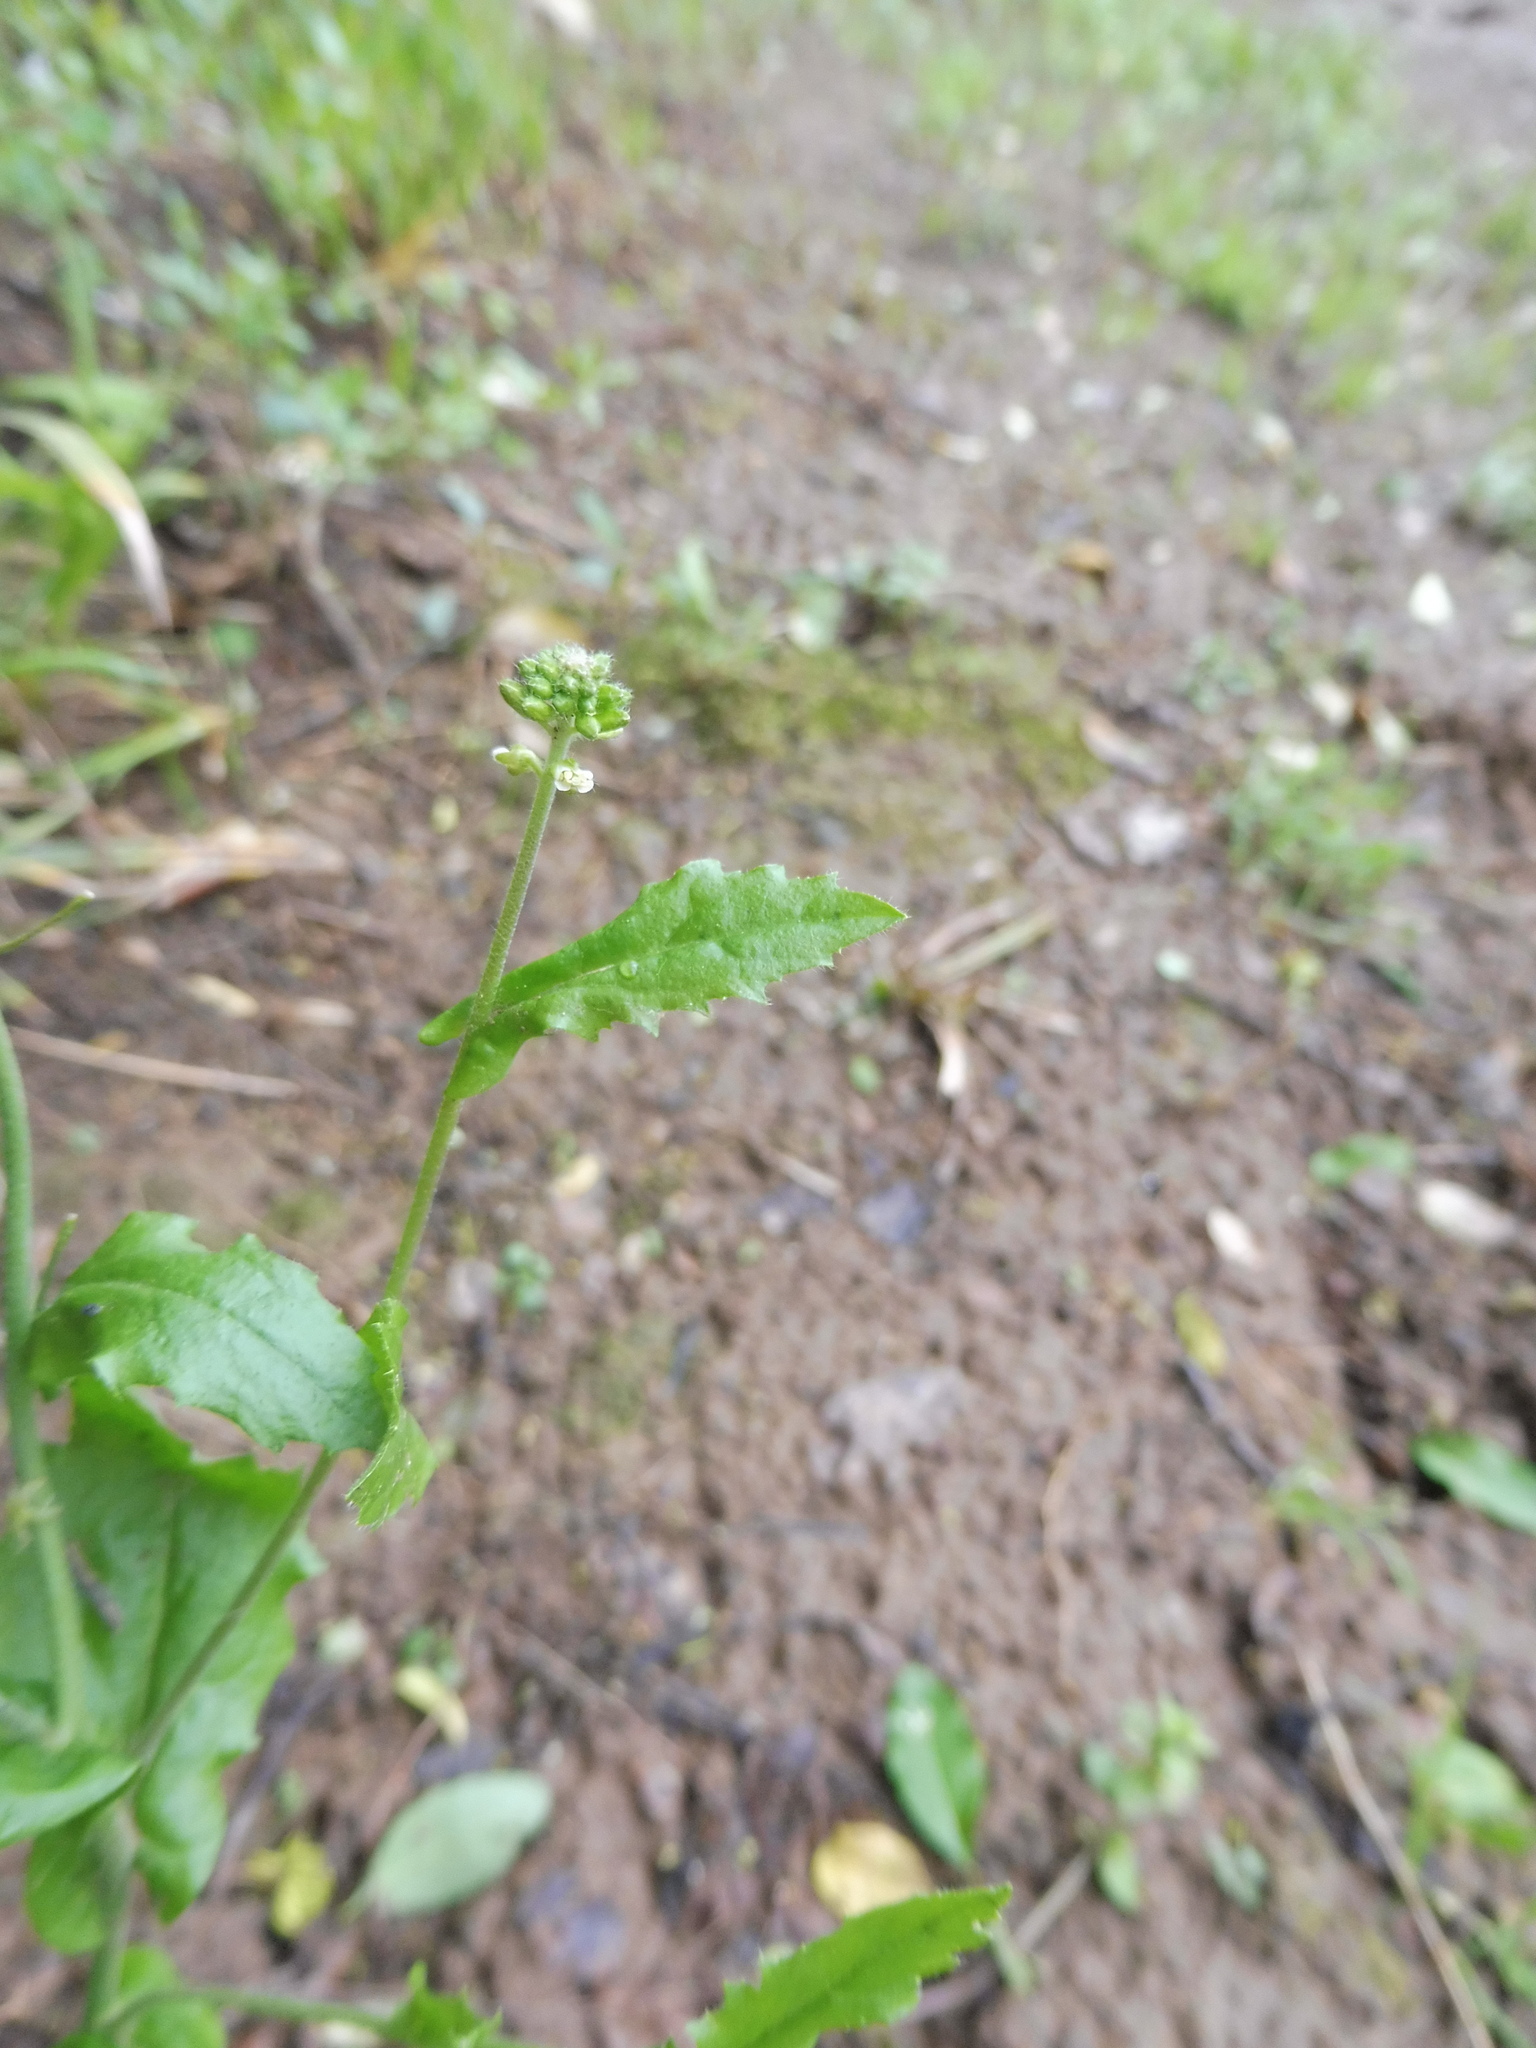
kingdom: Plantae
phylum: Tracheophyta
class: Magnoliopsida
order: Brassicales
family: Brassicaceae
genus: Borodinia
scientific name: Borodinia dentata
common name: Short's rockcress
